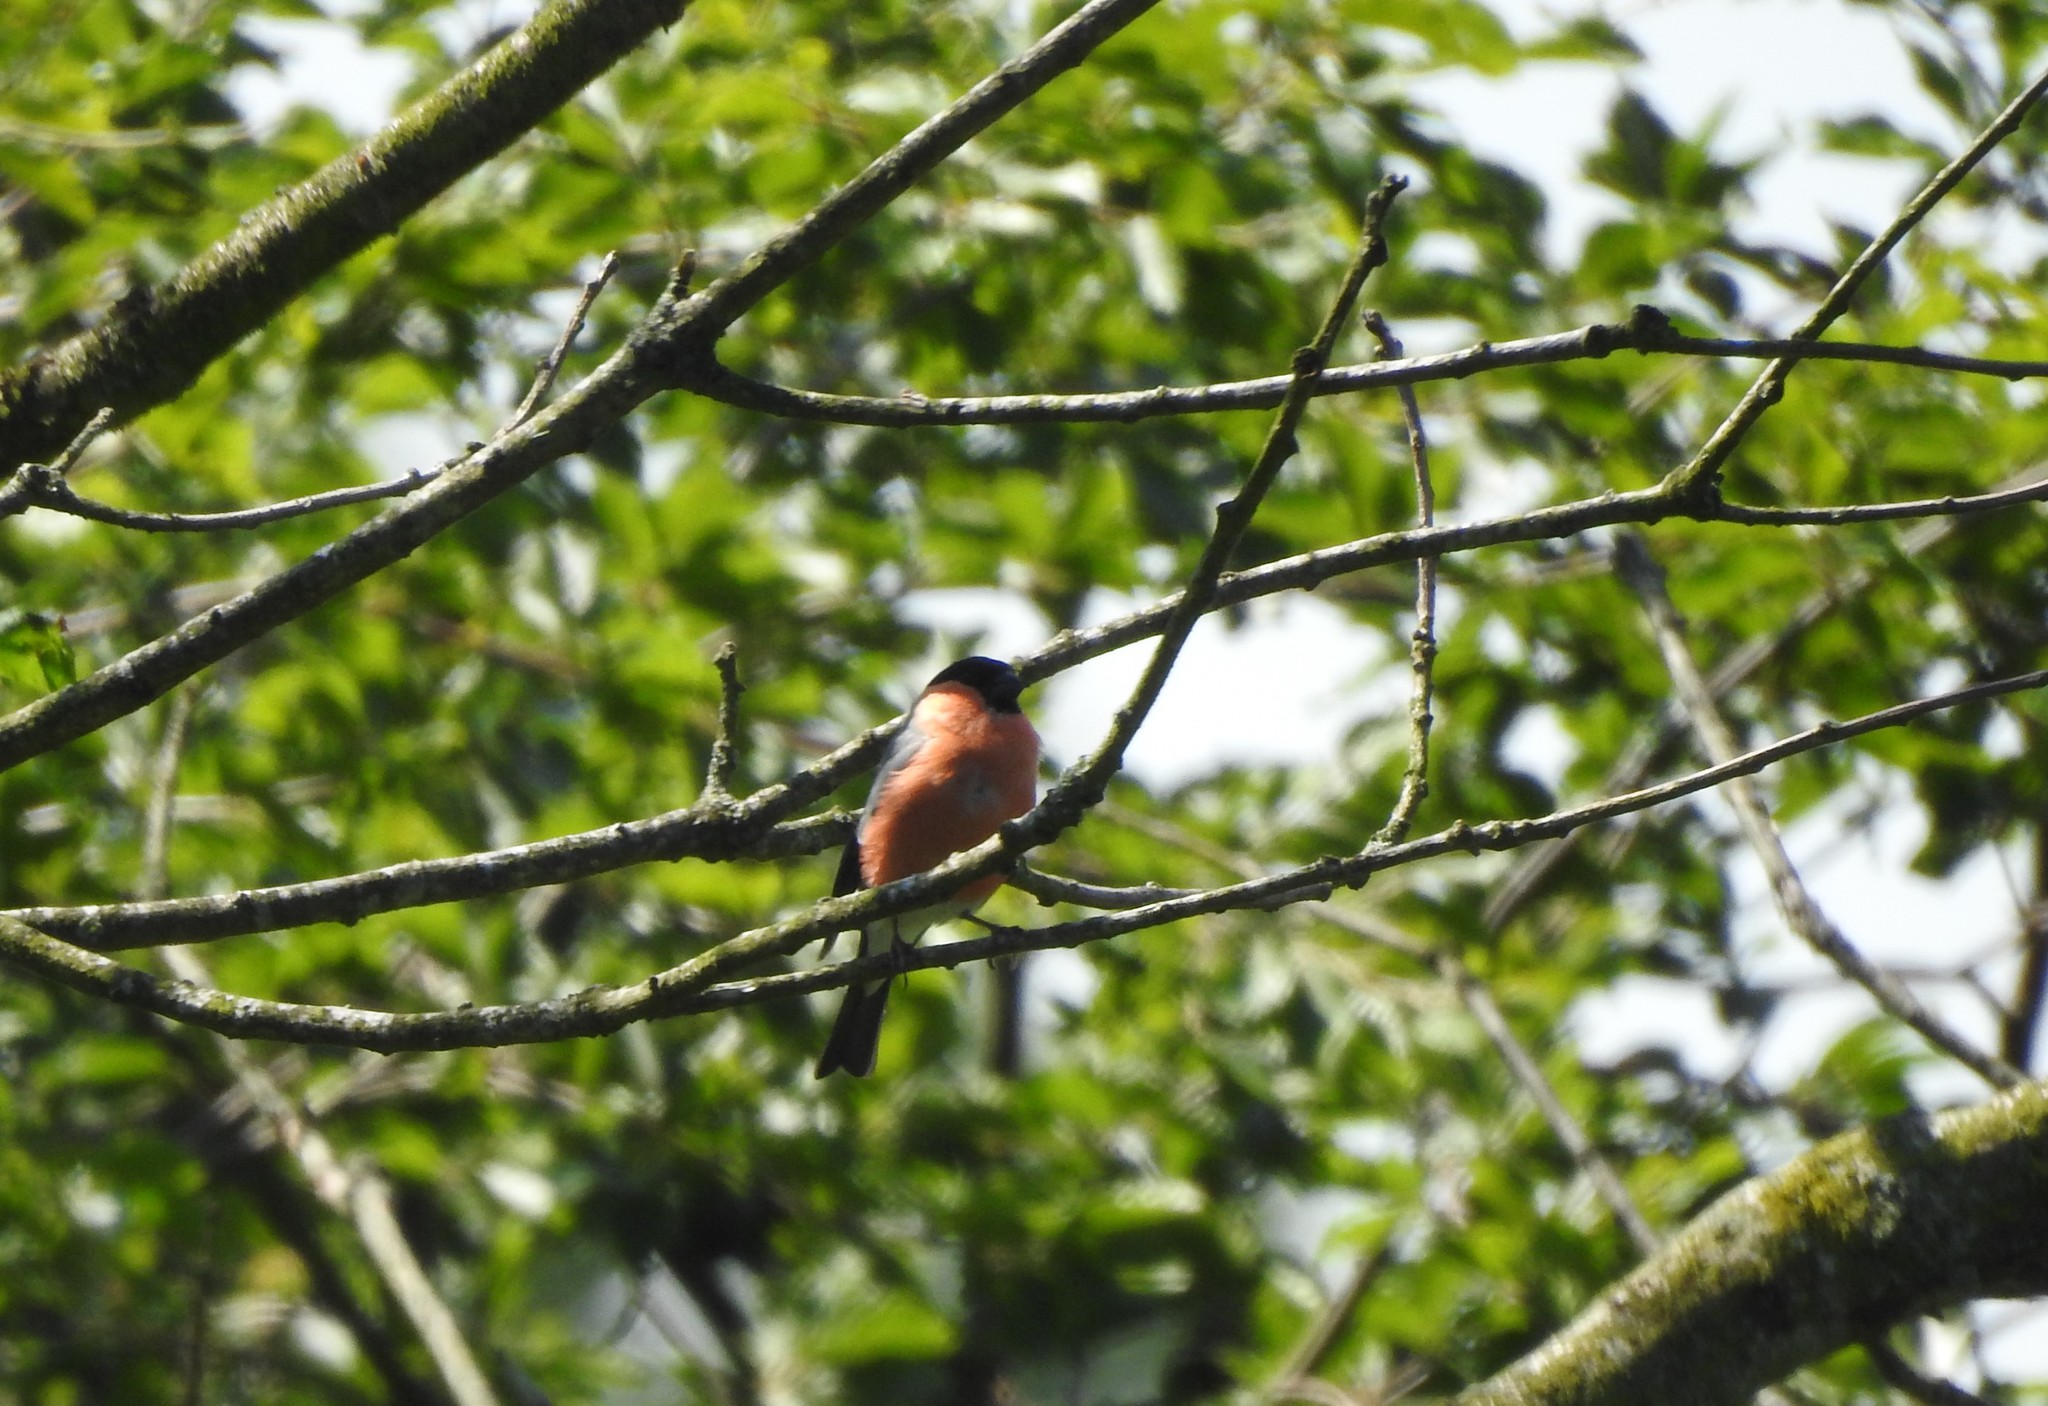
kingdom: Animalia
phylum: Chordata
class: Aves
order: Passeriformes
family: Fringillidae
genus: Pyrrhula
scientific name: Pyrrhula pyrrhula
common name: Eurasian bullfinch
